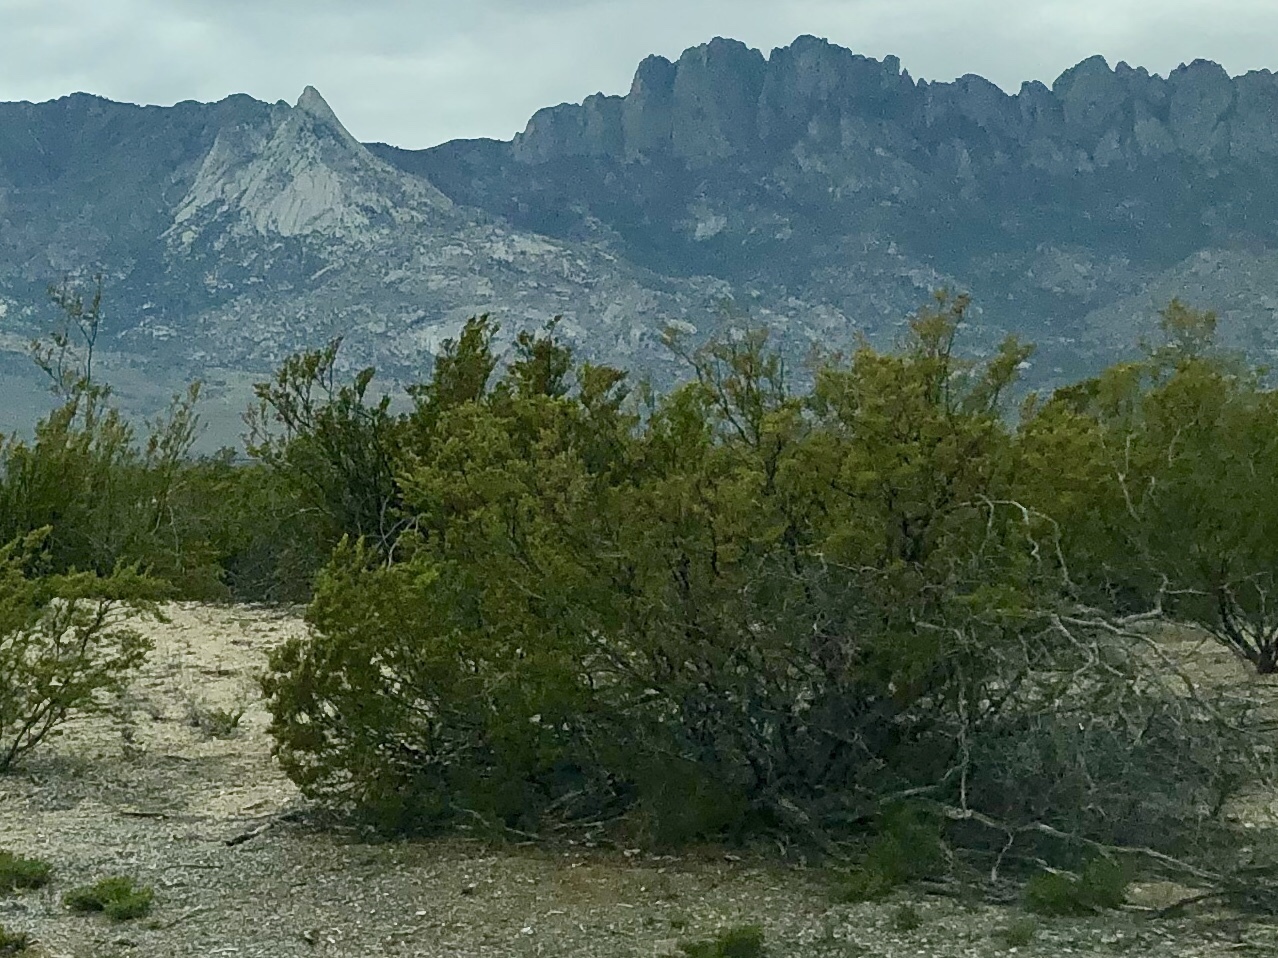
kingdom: Plantae
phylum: Tracheophyta
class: Magnoliopsida
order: Zygophyllales
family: Zygophyllaceae
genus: Larrea
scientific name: Larrea tridentata
